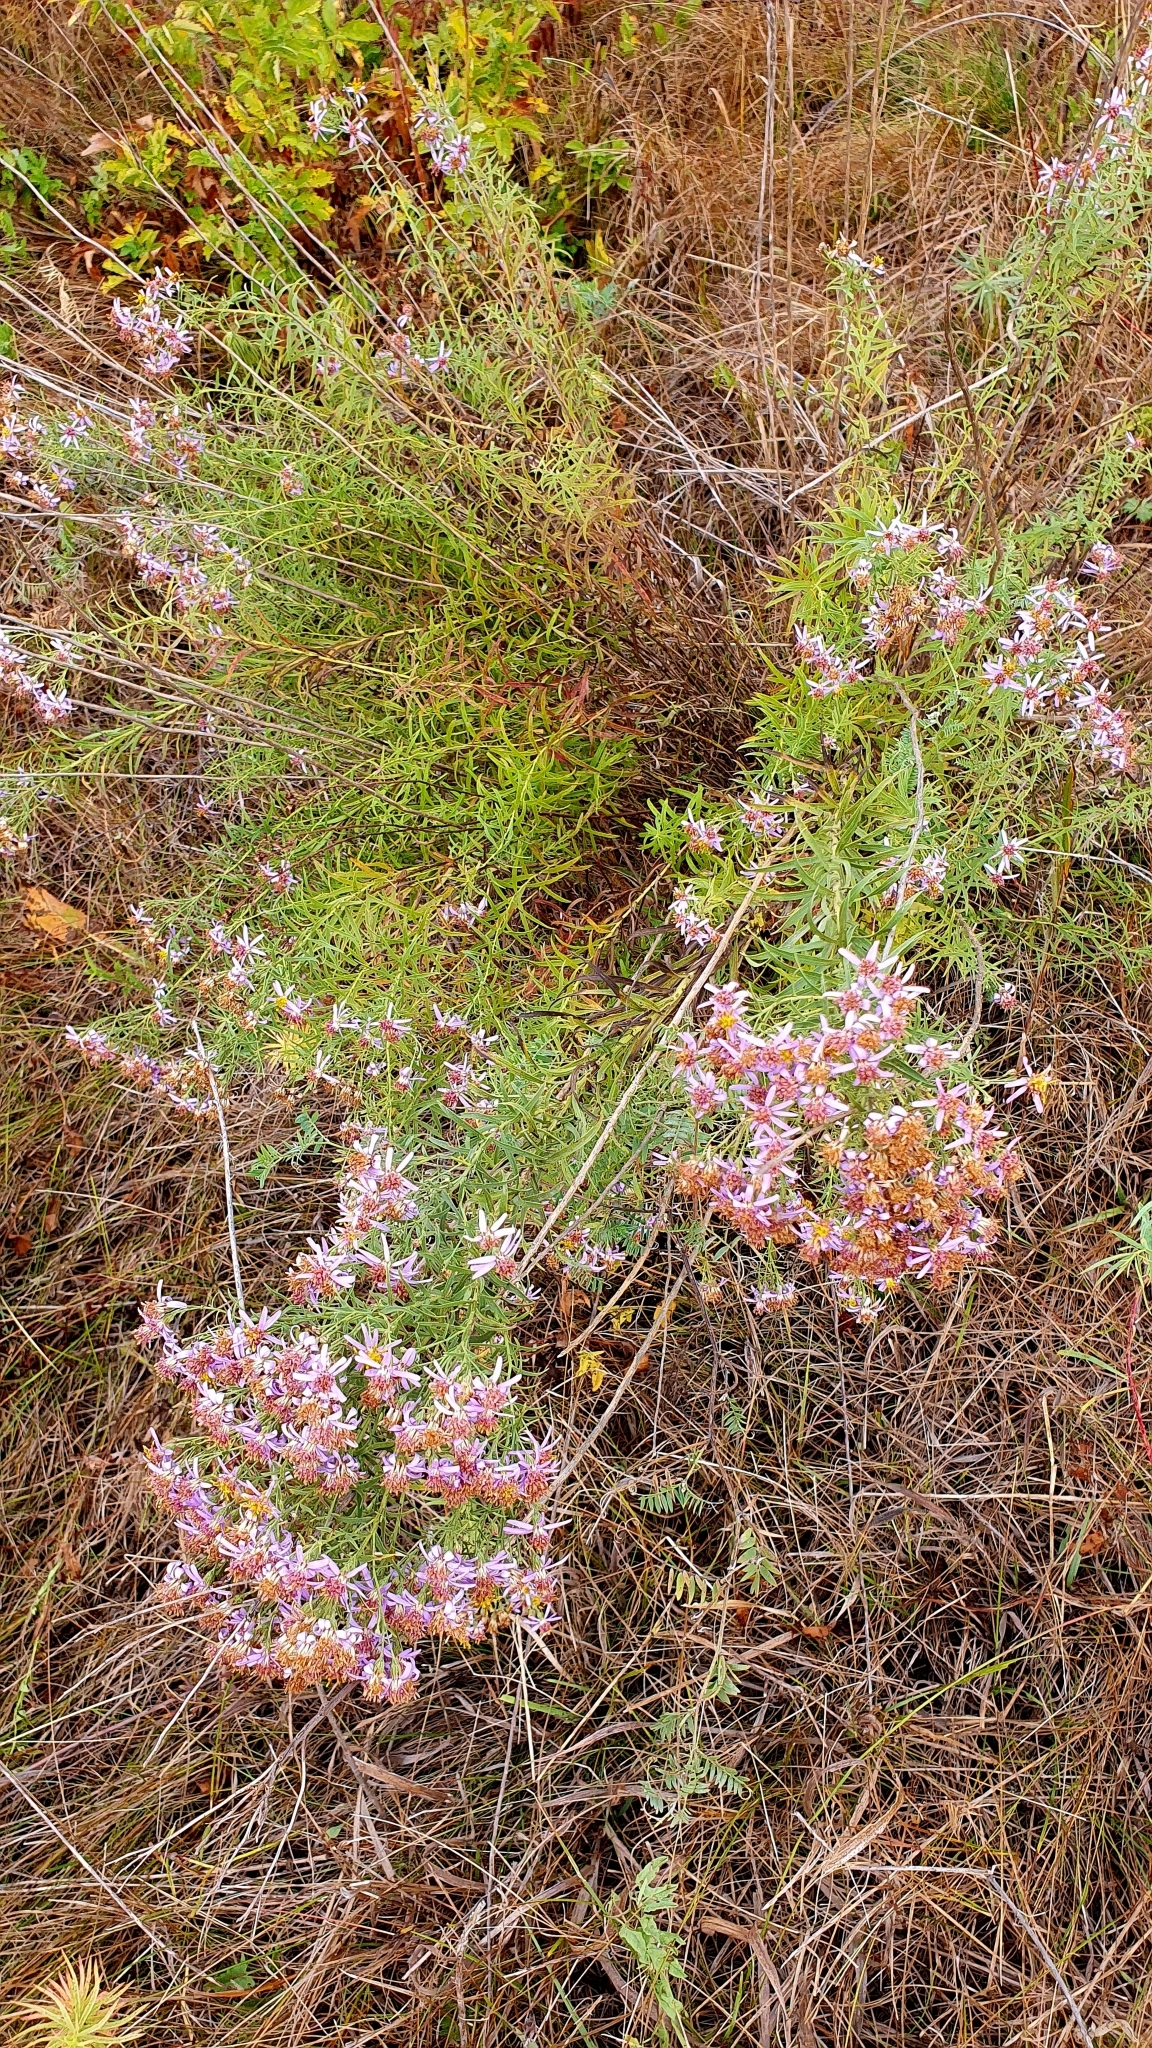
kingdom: Plantae
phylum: Tracheophyta
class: Magnoliopsida
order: Asterales
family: Asteraceae
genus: Galatella
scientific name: Galatella sedifolia
